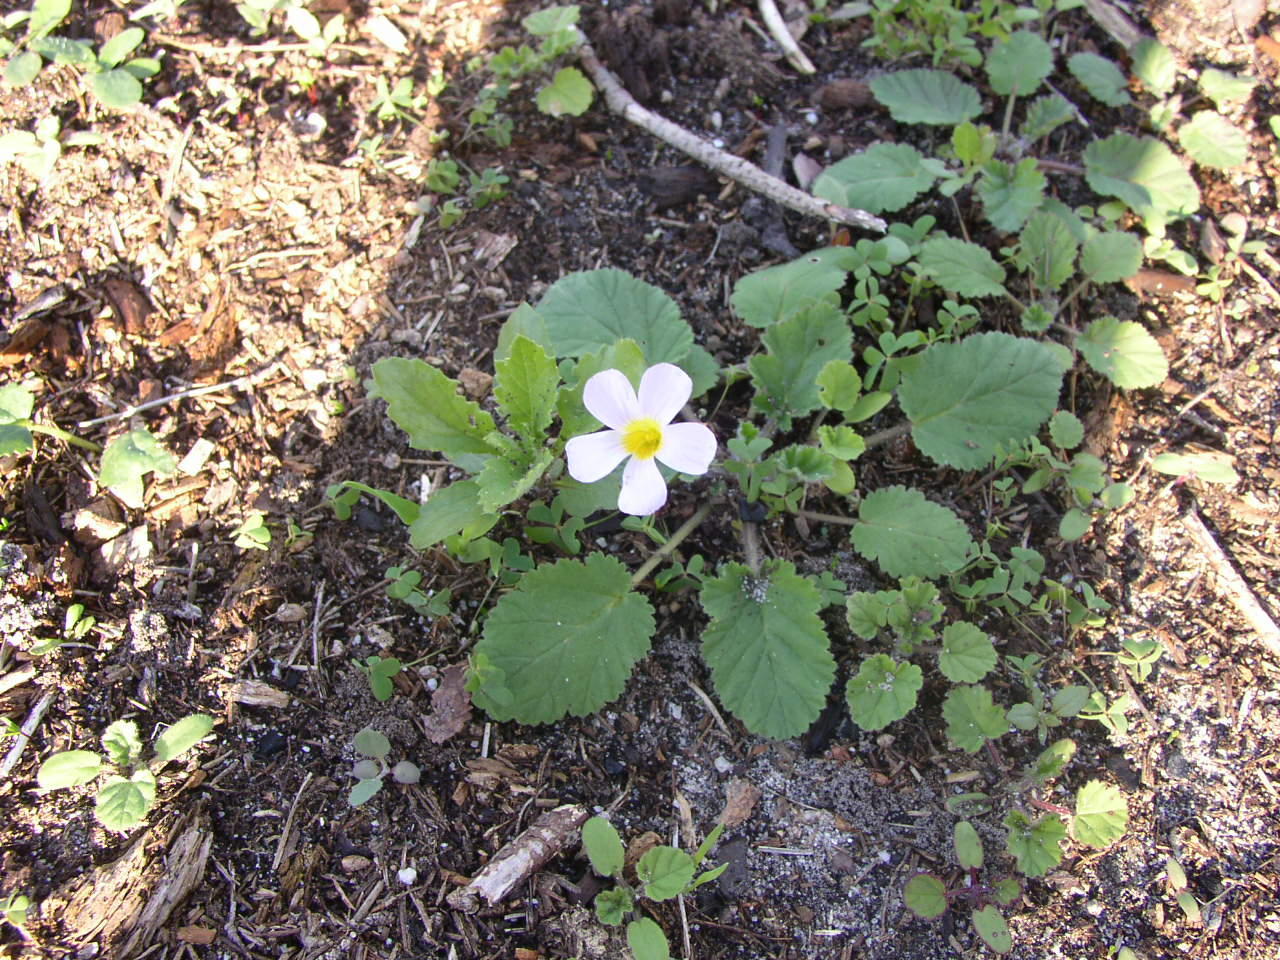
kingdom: Plantae
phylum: Tracheophyta
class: Magnoliopsida
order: Oxalidales
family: Oxalidaceae
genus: Oxalis
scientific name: Oxalis caprina
